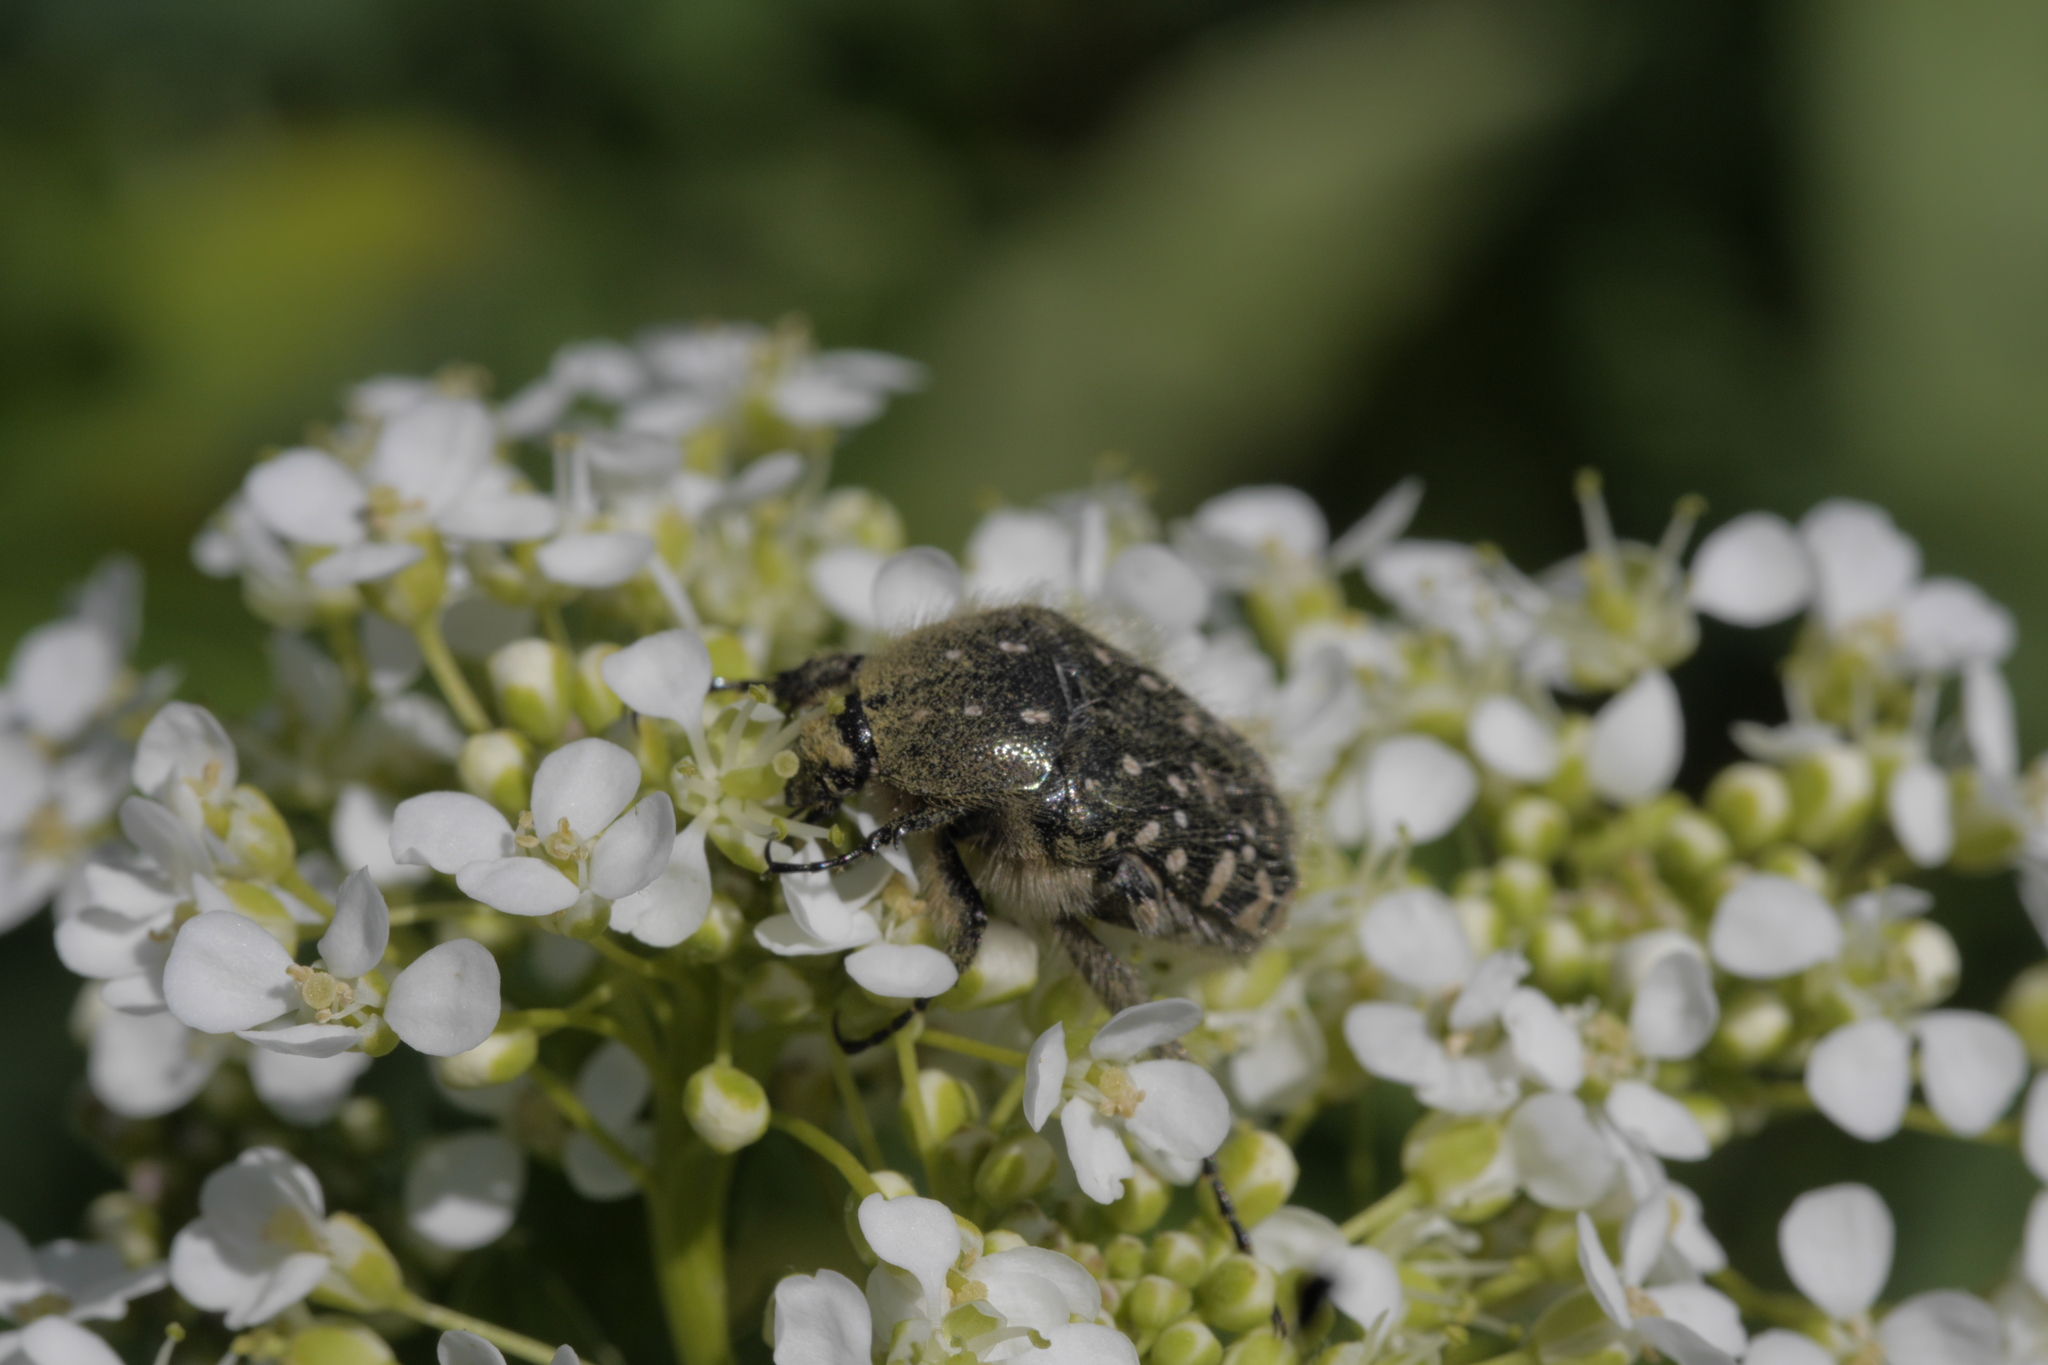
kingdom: Animalia
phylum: Arthropoda
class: Insecta
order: Coleoptera
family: Scarabaeidae
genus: Oxythyrea
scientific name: Oxythyrea funesta
